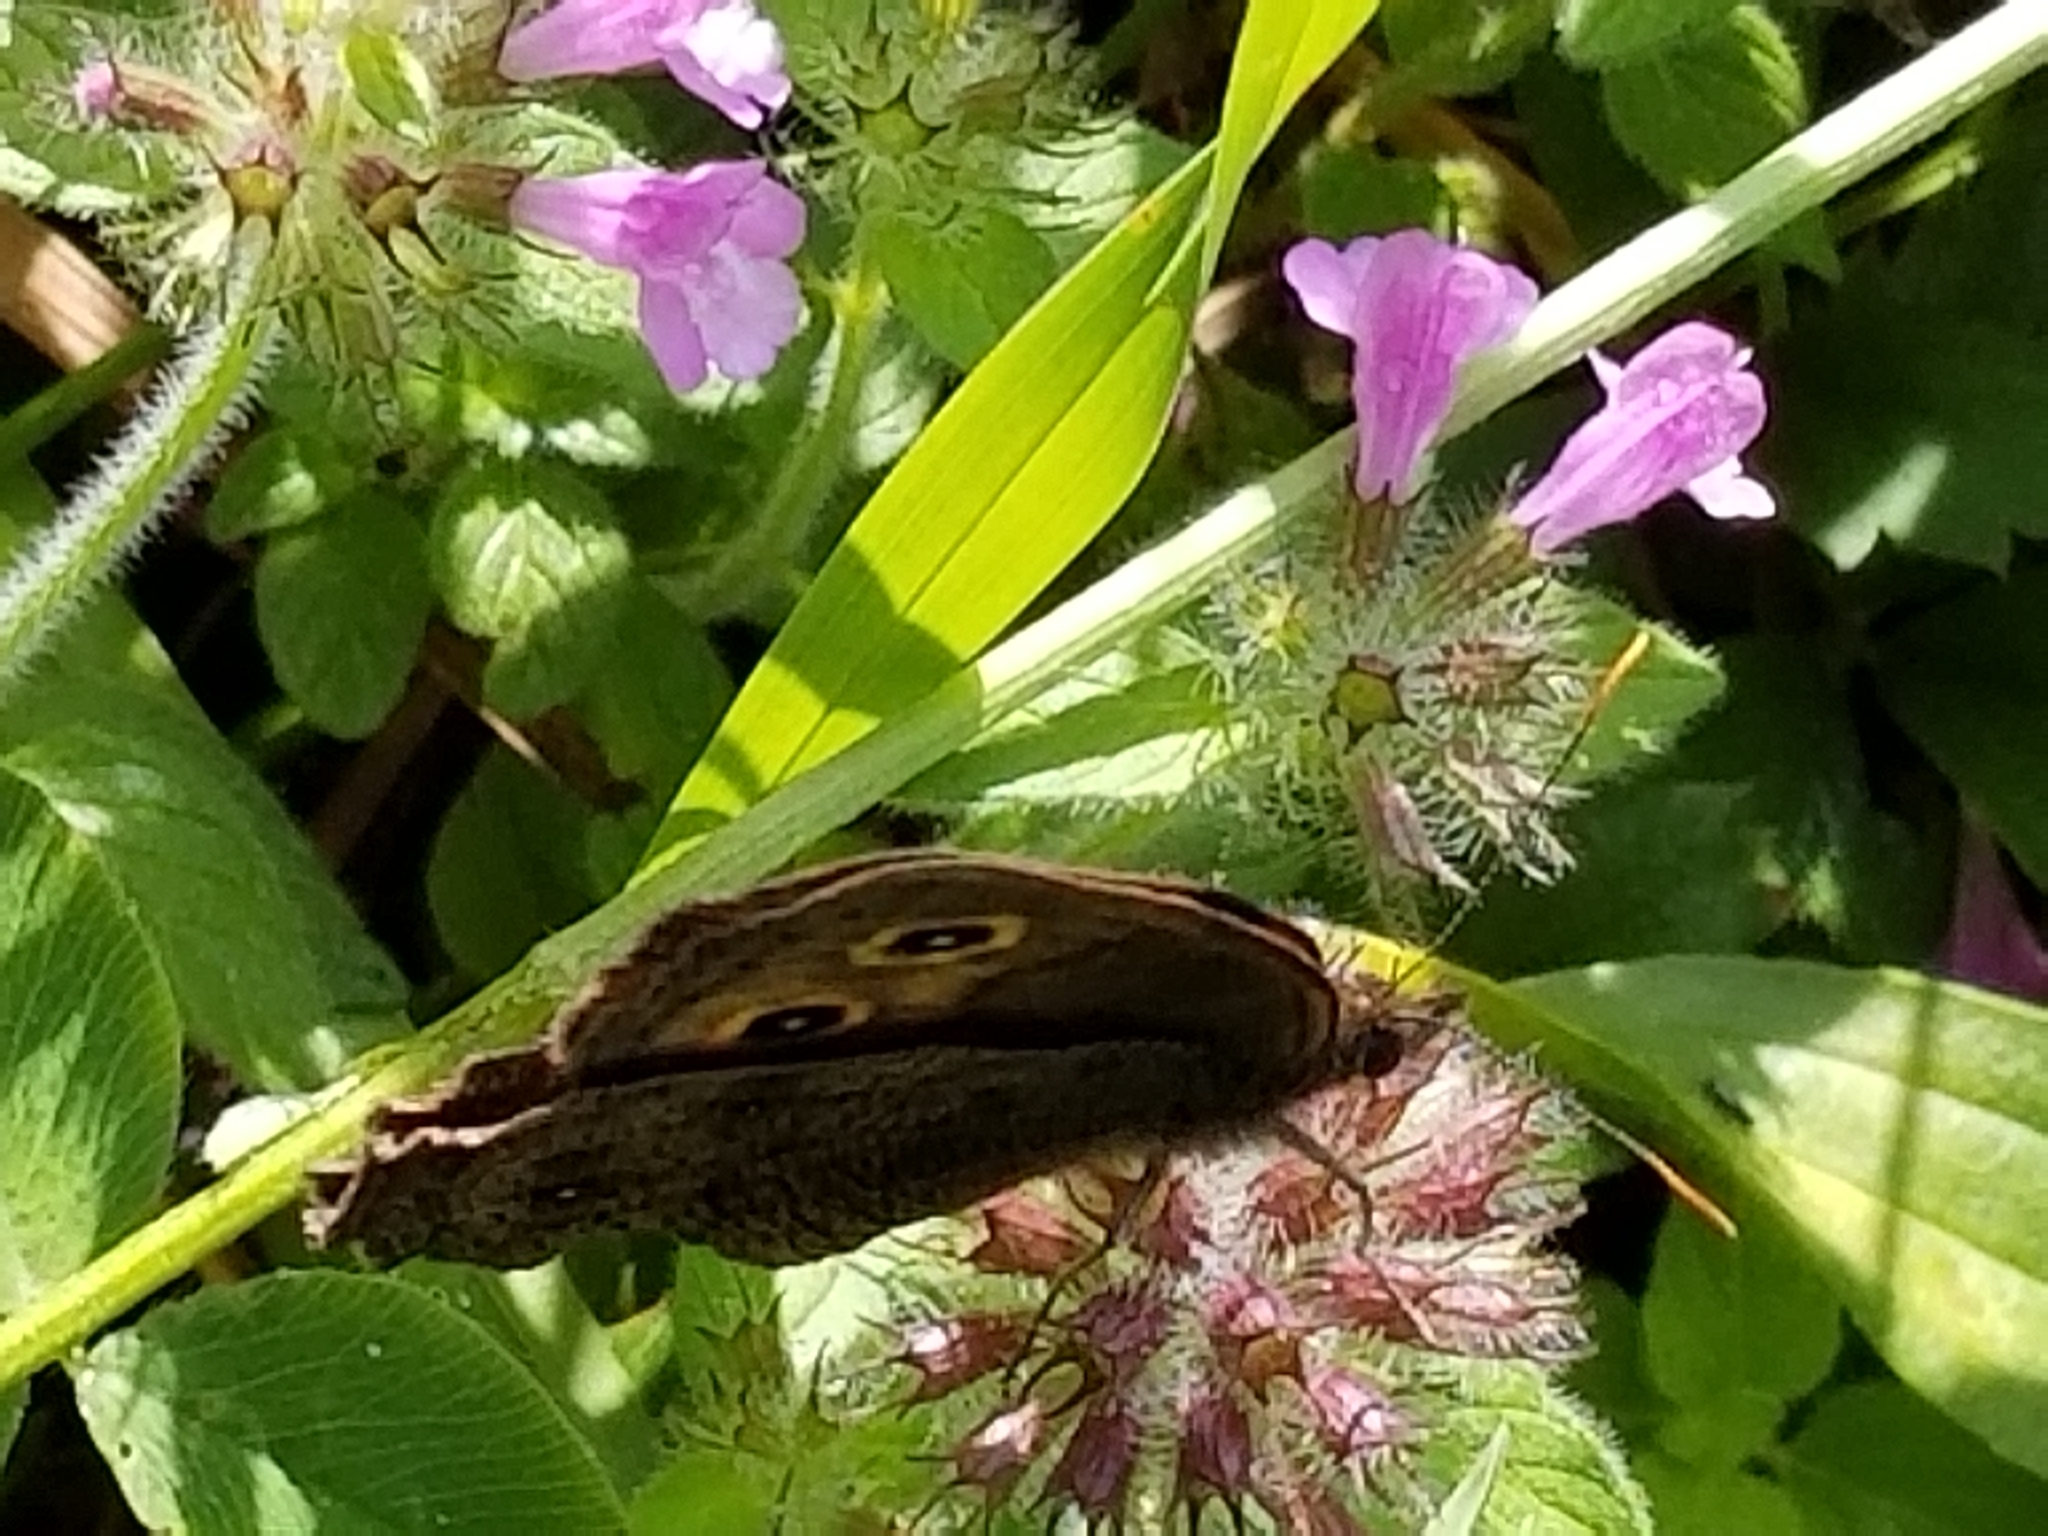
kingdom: Animalia
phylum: Arthropoda
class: Insecta
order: Lepidoptera
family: Nymphalidae
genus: Cercyonis
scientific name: Cercyonis pegala
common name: Common wood-nymph
